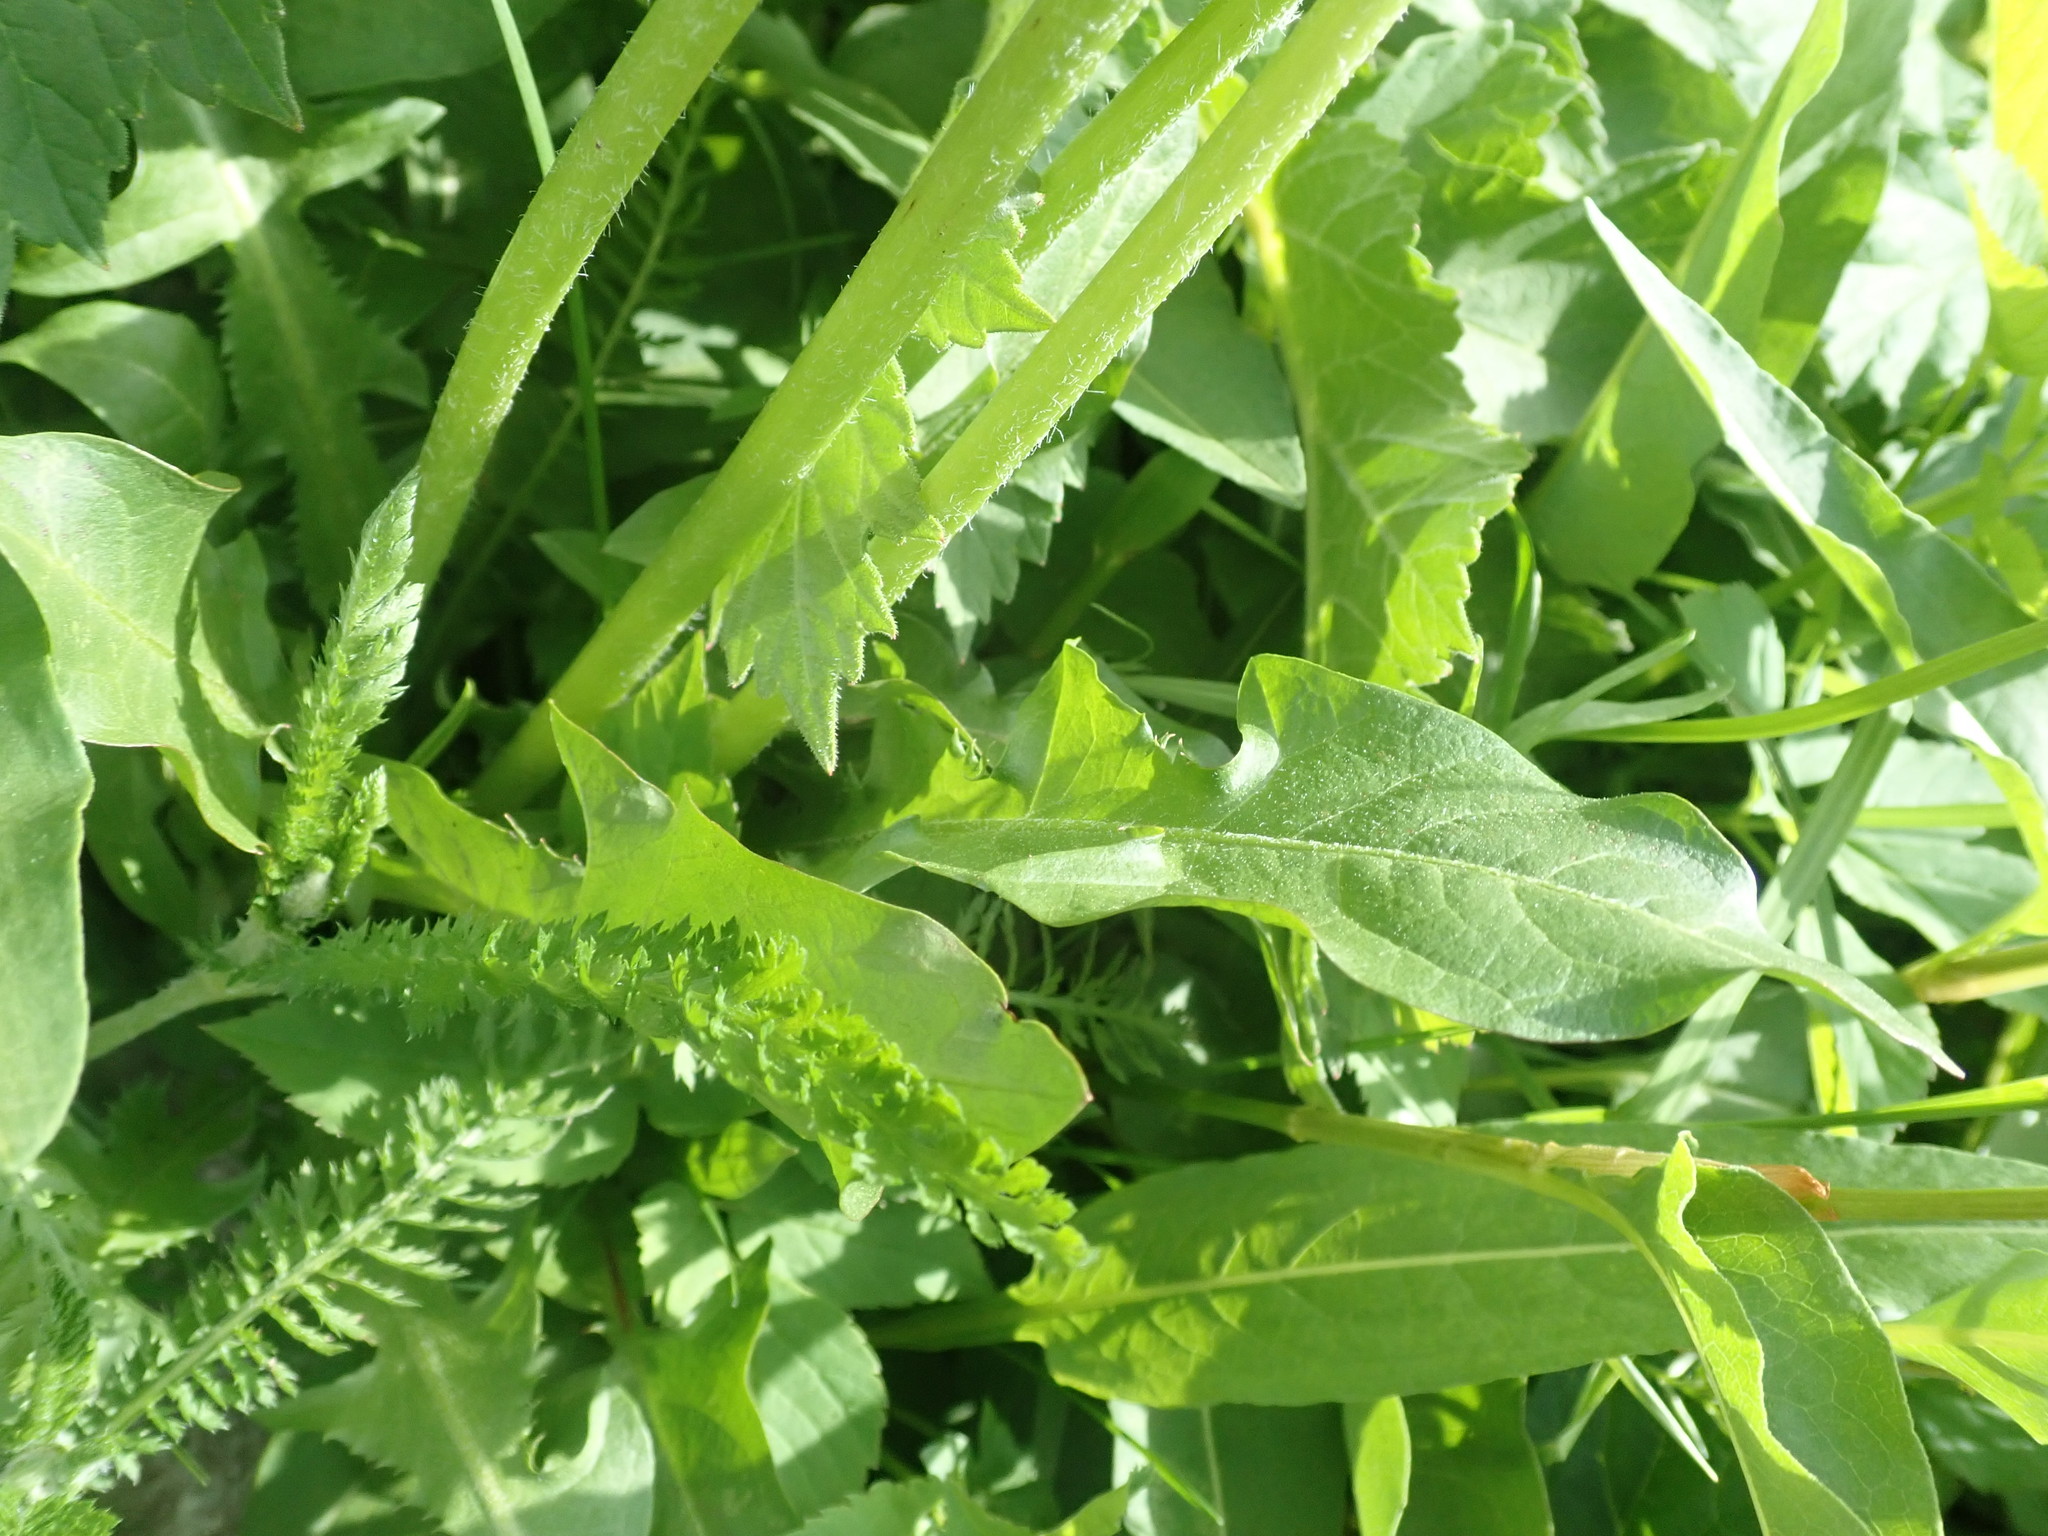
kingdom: Plantae
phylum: Tracheophyta
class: Magnoliopsida
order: Asterales
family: Asteraceae
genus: Taraxacum
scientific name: Taraxacum officinale
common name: Common dandelion
